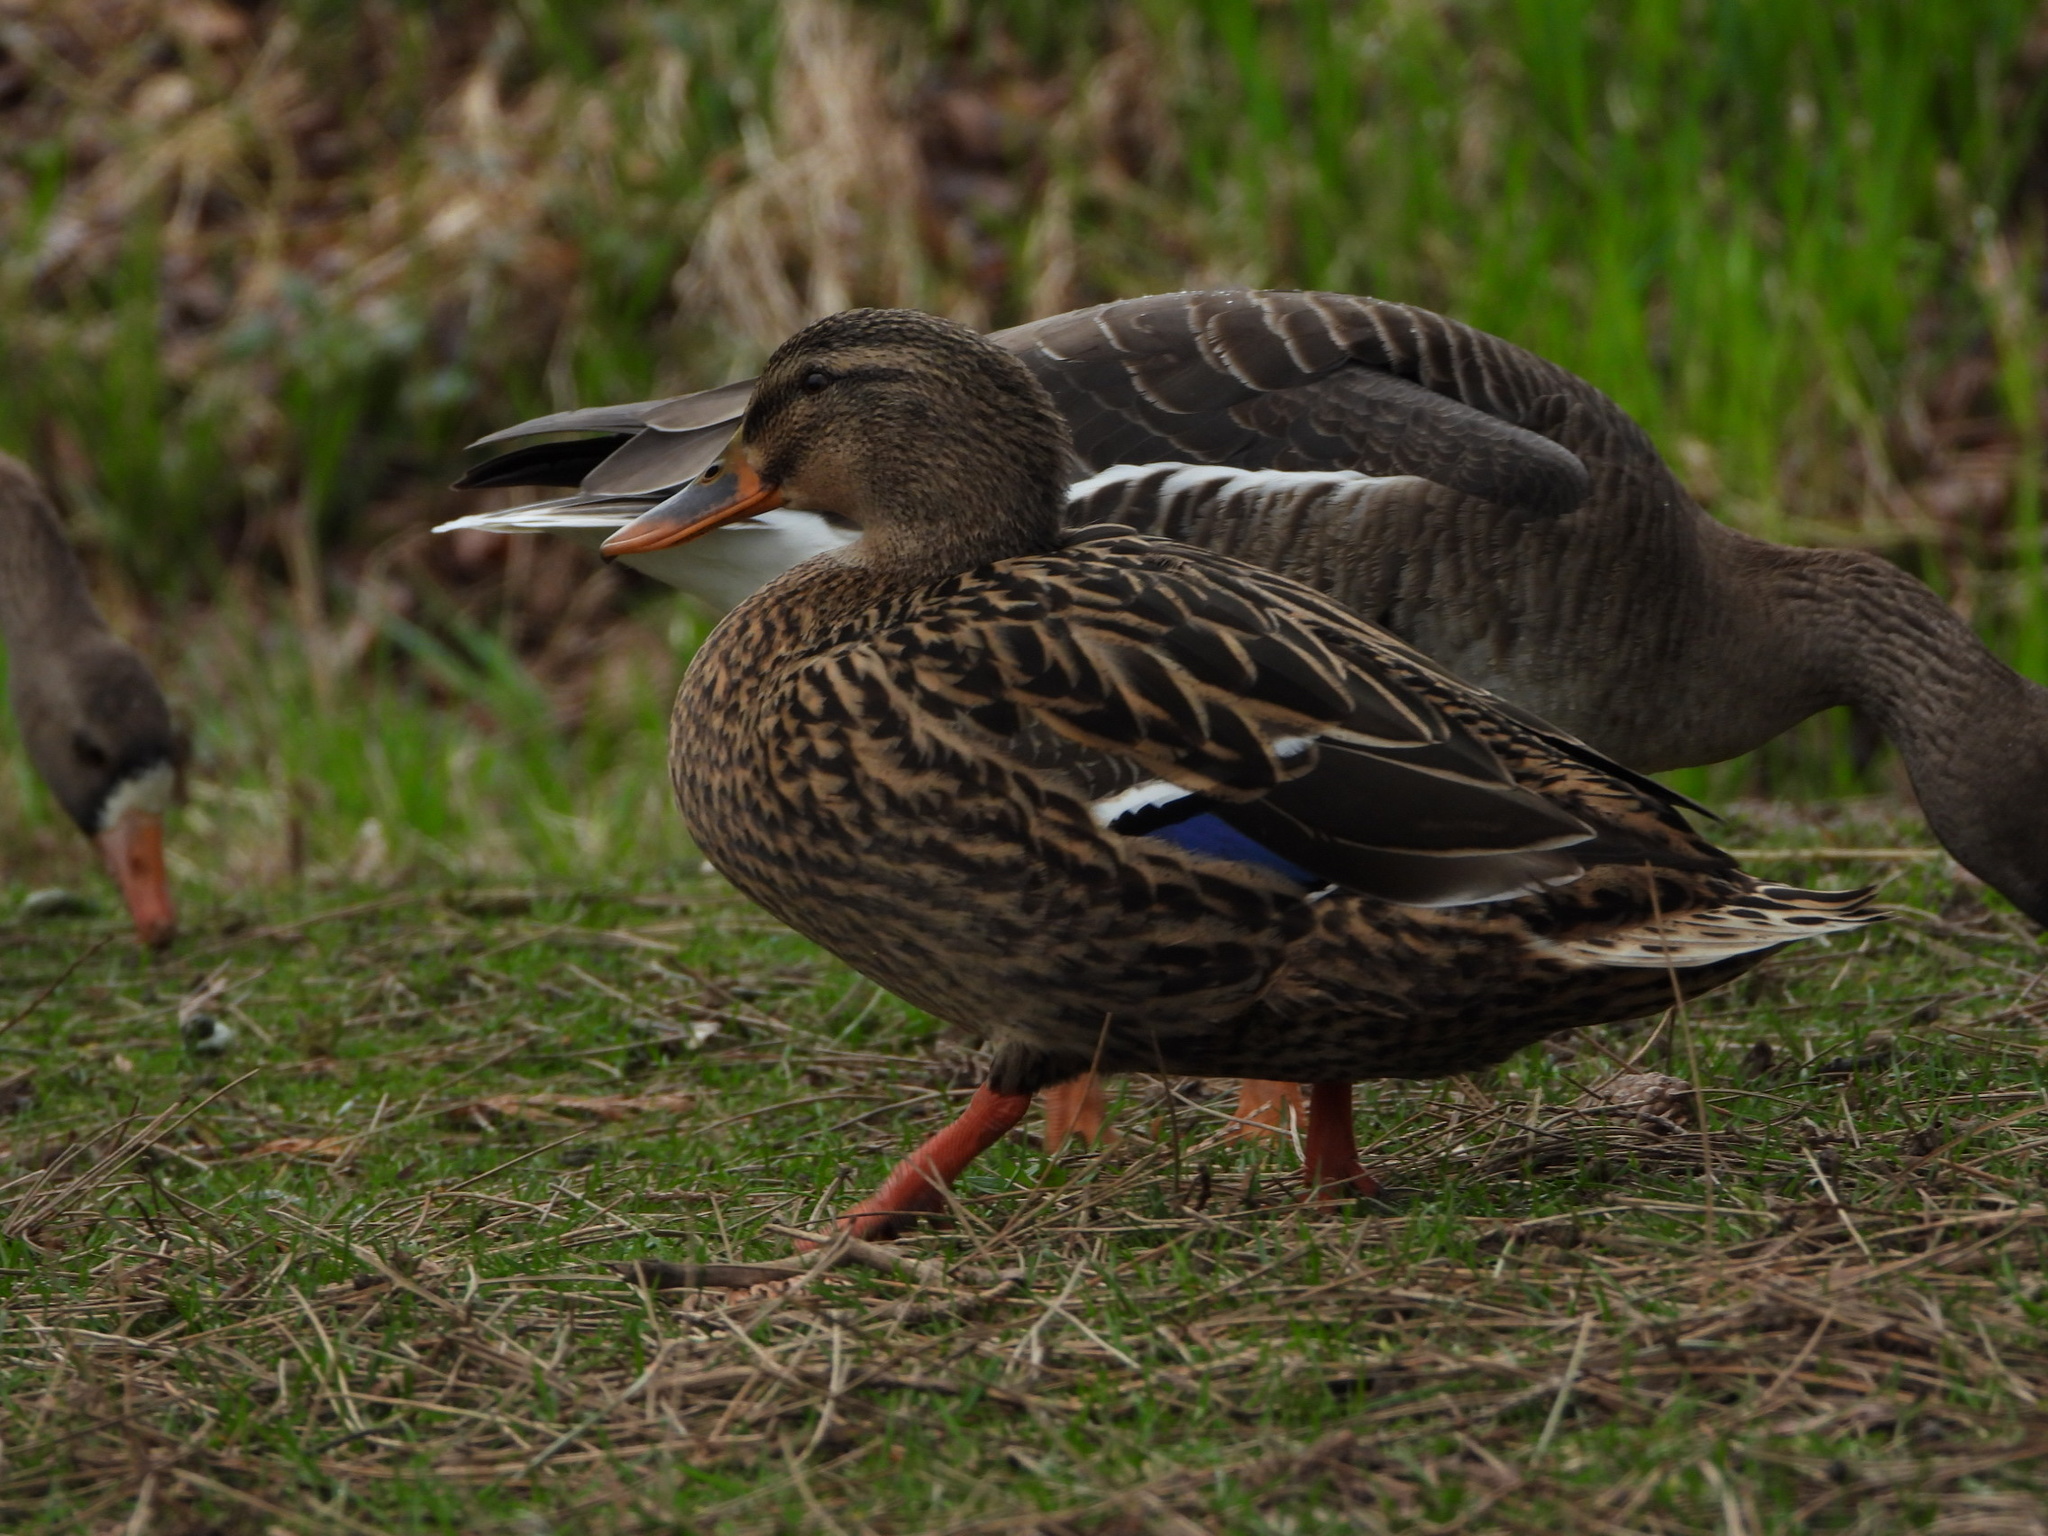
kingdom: Animalia
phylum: Chordata
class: Aves
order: Anseriformes
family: Anatidae
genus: Anas
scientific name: Anas platyrhynchos
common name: Mallard
